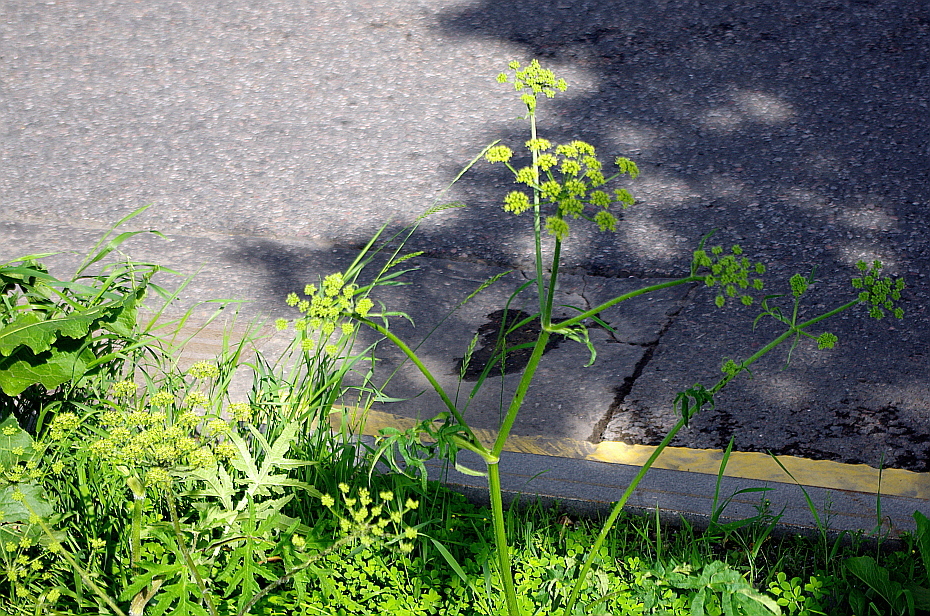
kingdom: Plantae
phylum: Tracheophyta
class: Magnoliopsida
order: Apiales
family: Apiaceae
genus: Heracleum
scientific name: Heracleum sphondylium
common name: Hogweed
